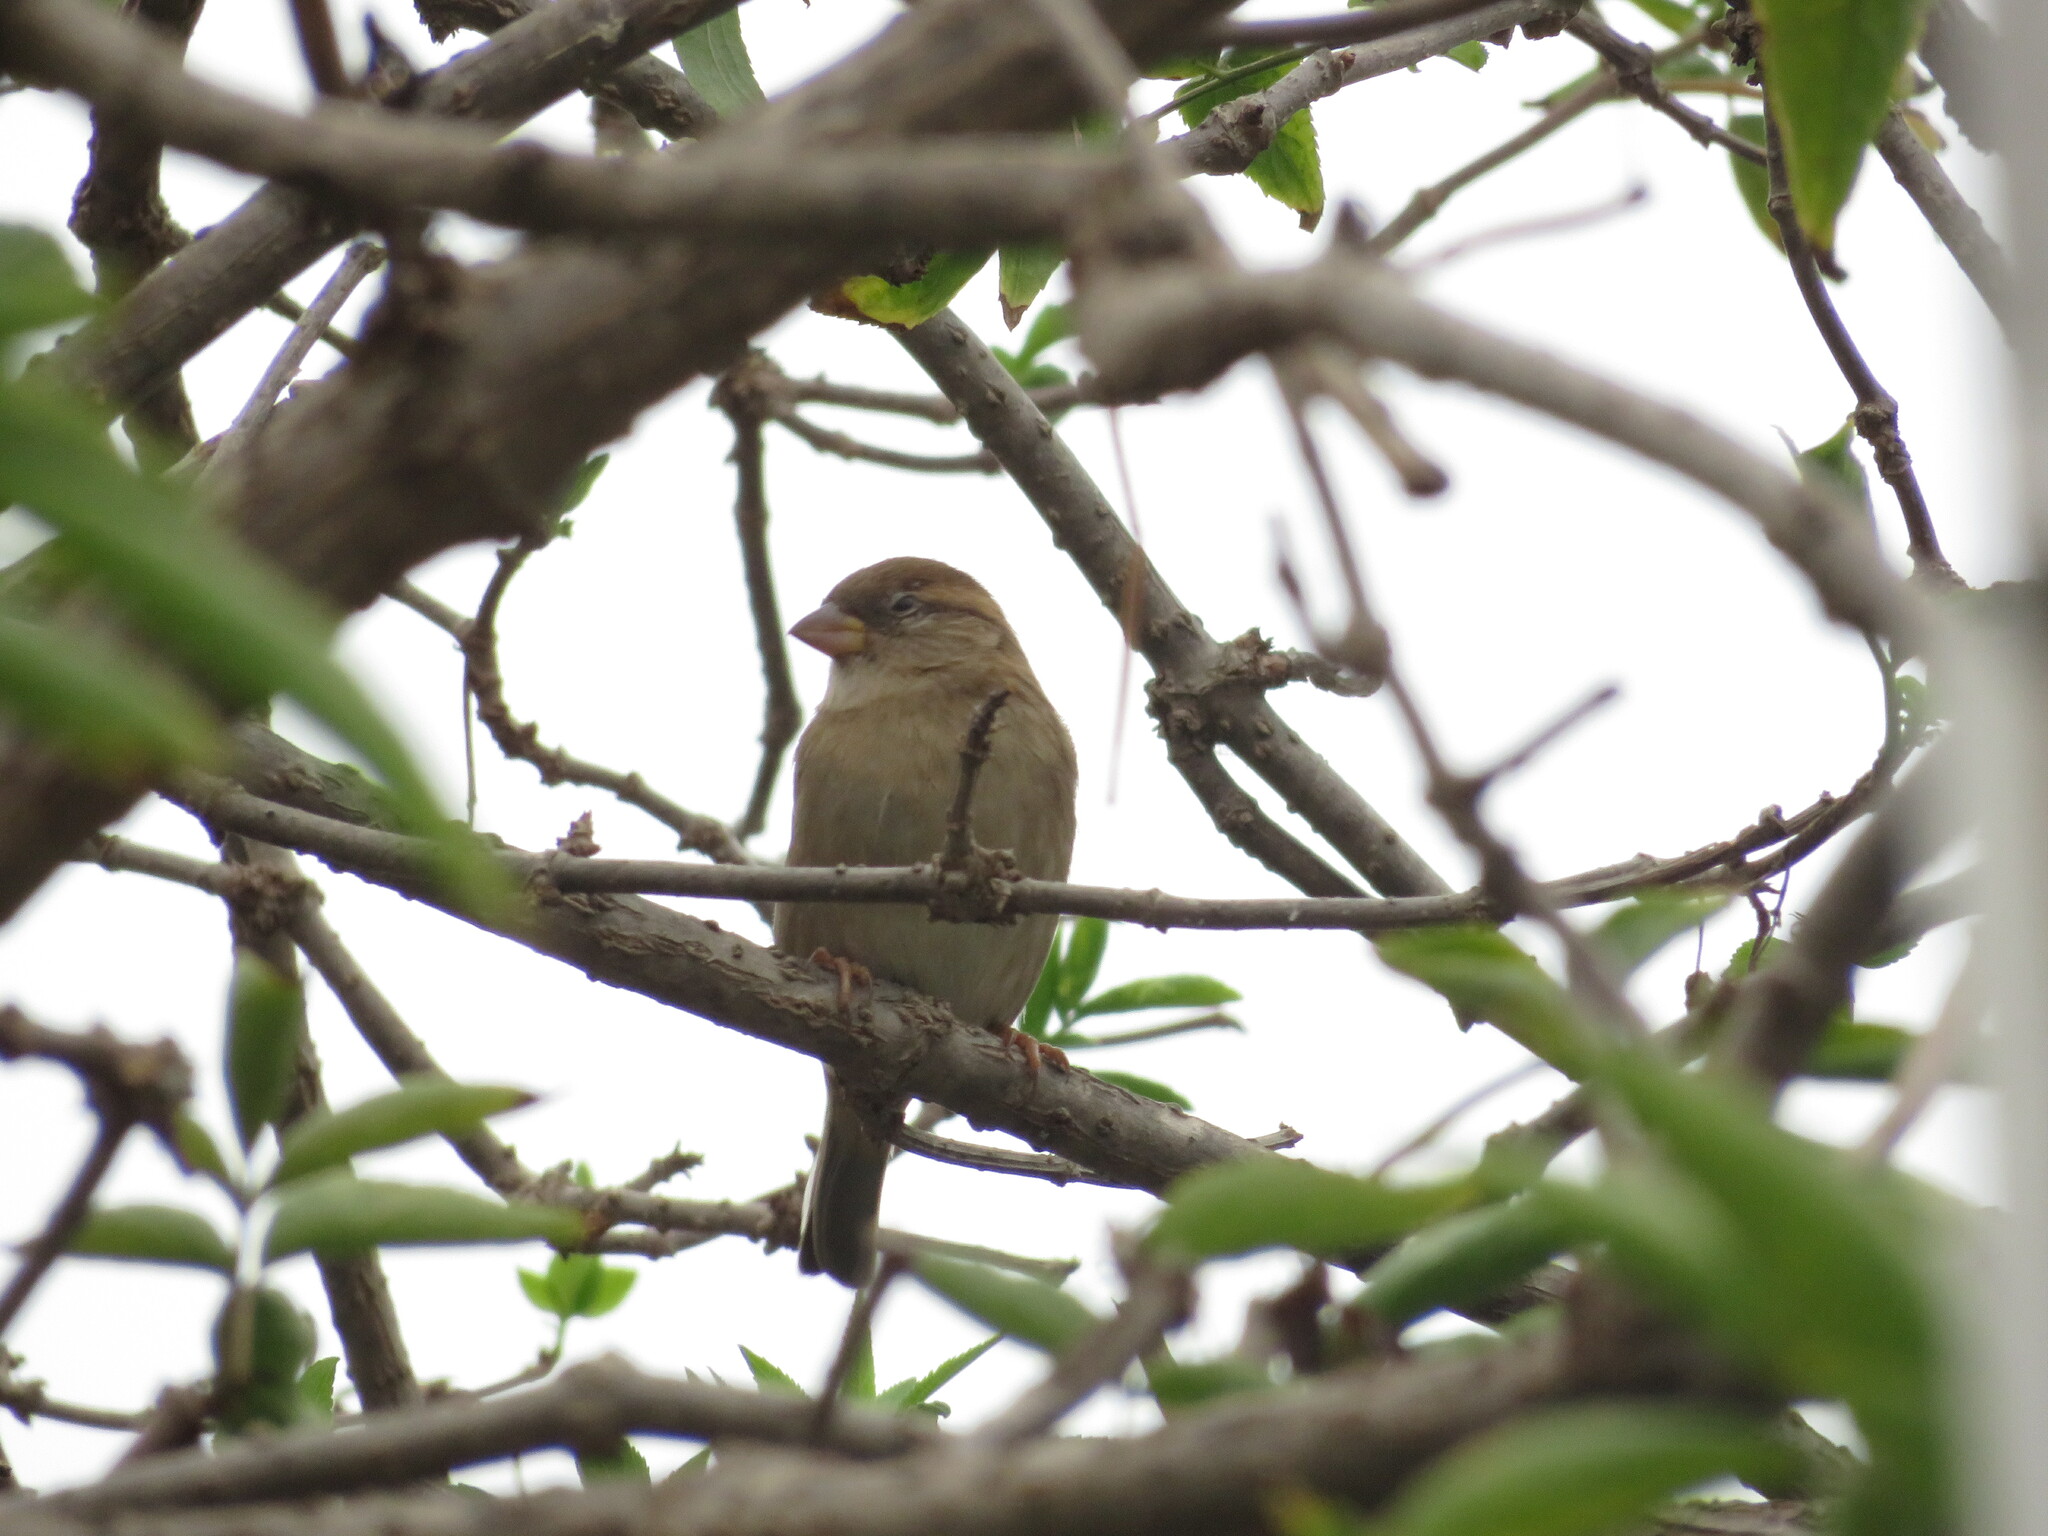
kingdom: Animalia
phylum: Chordata
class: Aves
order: Passeriformes
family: Passeridae
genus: Passer
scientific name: Passer domesticus
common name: House sparrow
